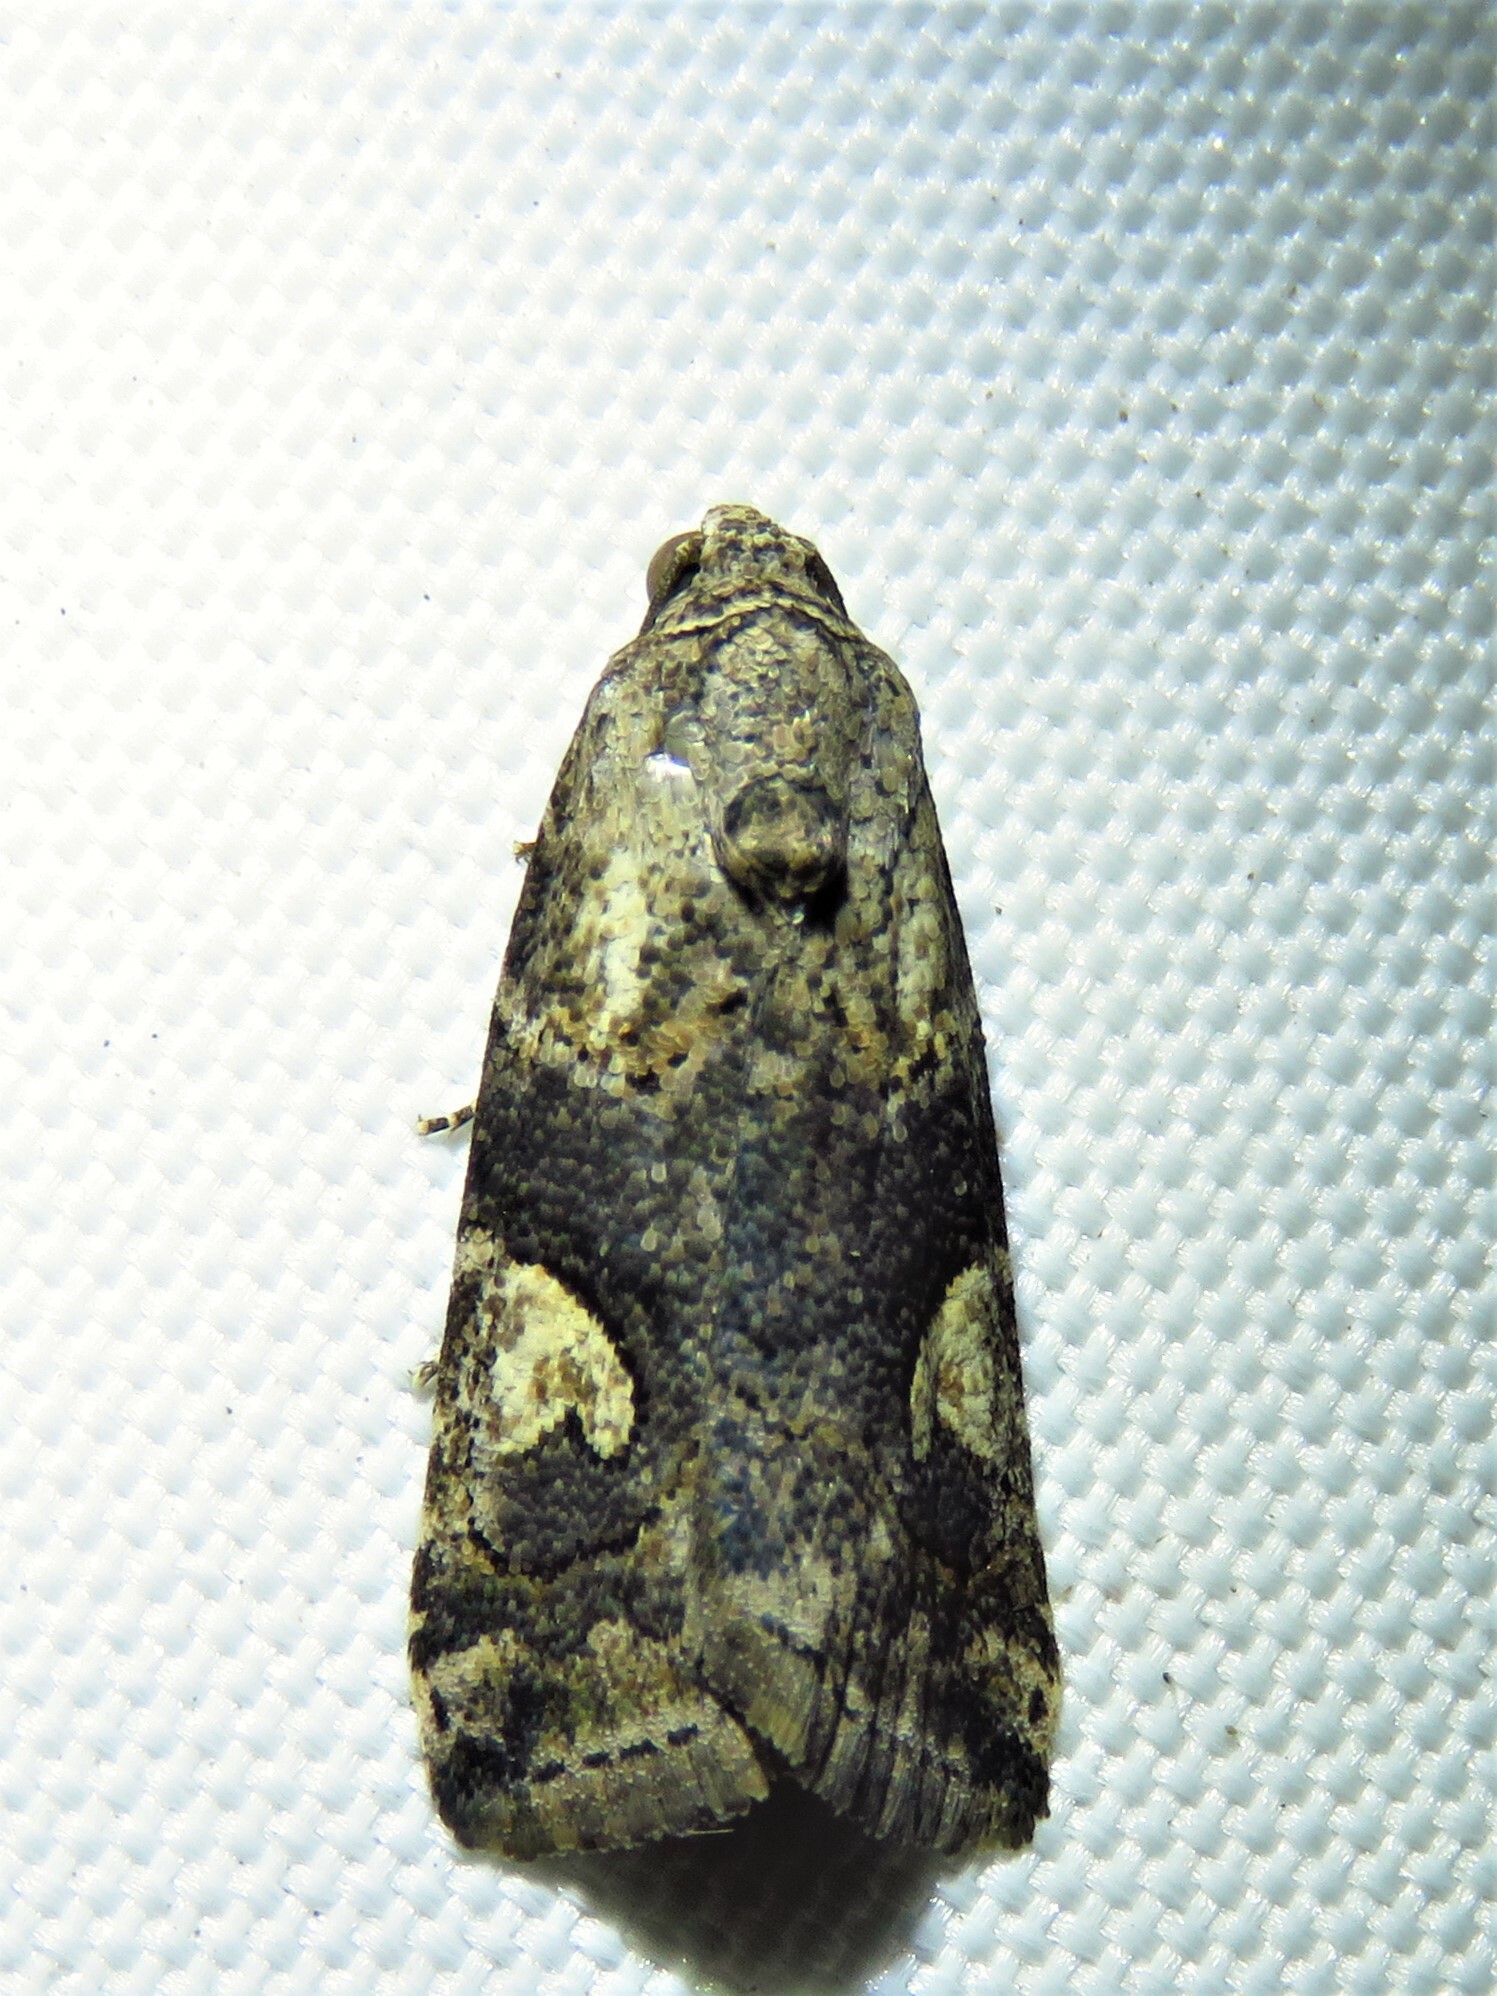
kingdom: Animalia
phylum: Arthropoda
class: Insecta
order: Lepidoptera
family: Noctuidae
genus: Metaponpneumata
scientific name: Metaponpneumata rogenhoferi
